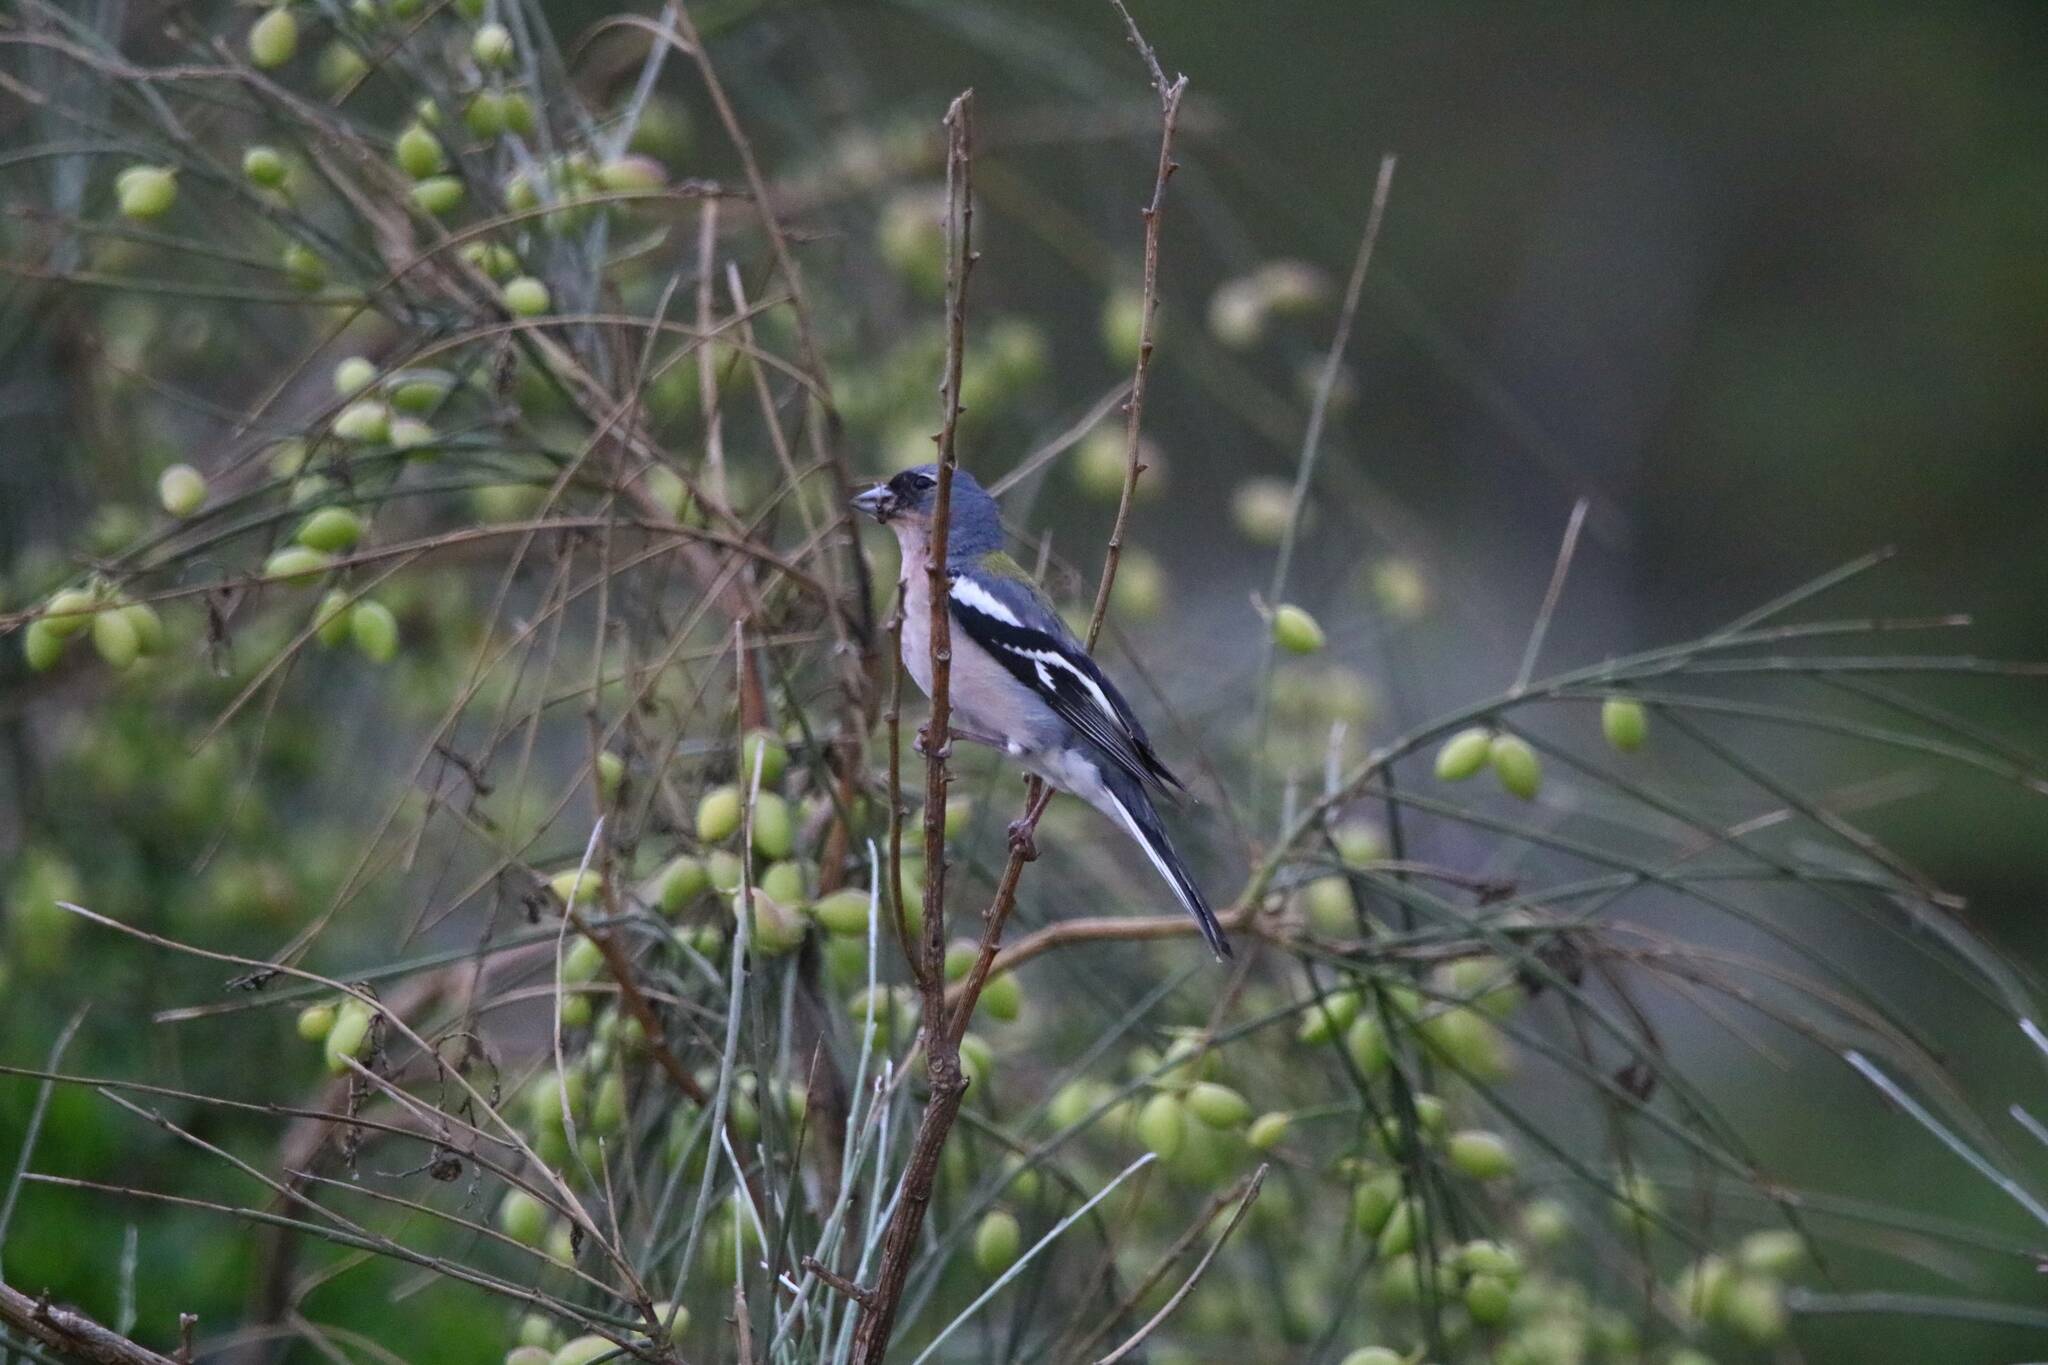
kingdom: Animalia
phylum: Chordata
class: Aves
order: Passeriformes
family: Fringillidae
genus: Fringilla
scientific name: Fringilla spodiogenys
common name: African chaffinch
